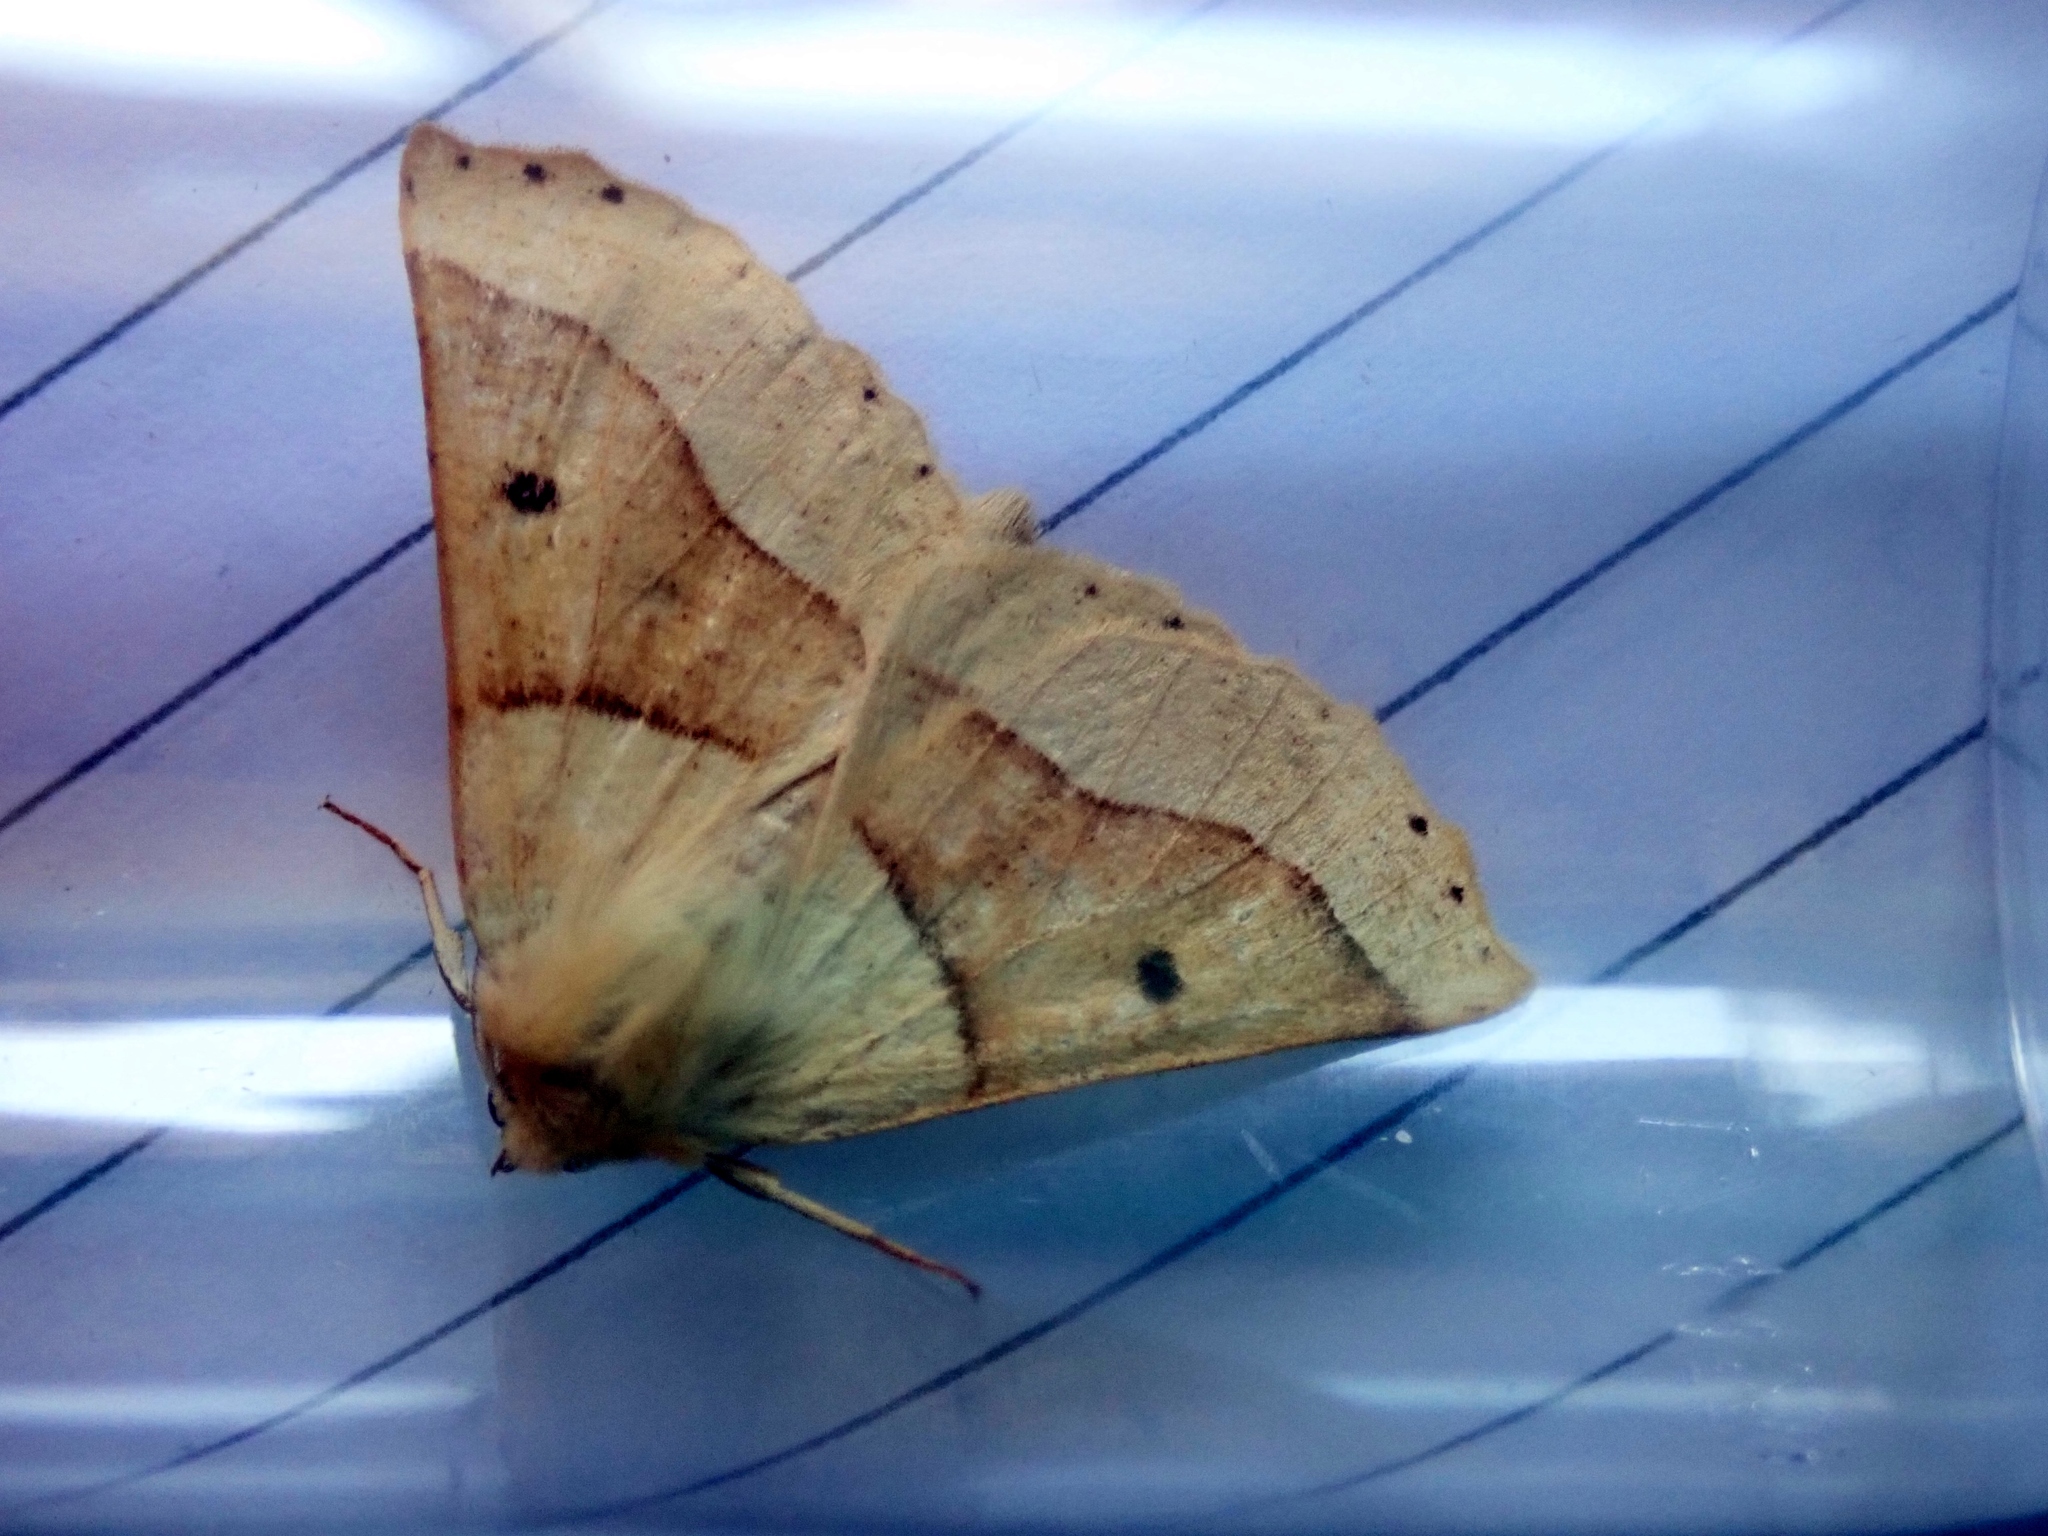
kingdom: Animalia
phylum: Arthropoda
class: Insecta
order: Lepidoptera
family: Geometridae
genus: Crocallis
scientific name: Crocallis elinguaria
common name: Scalloped oak
